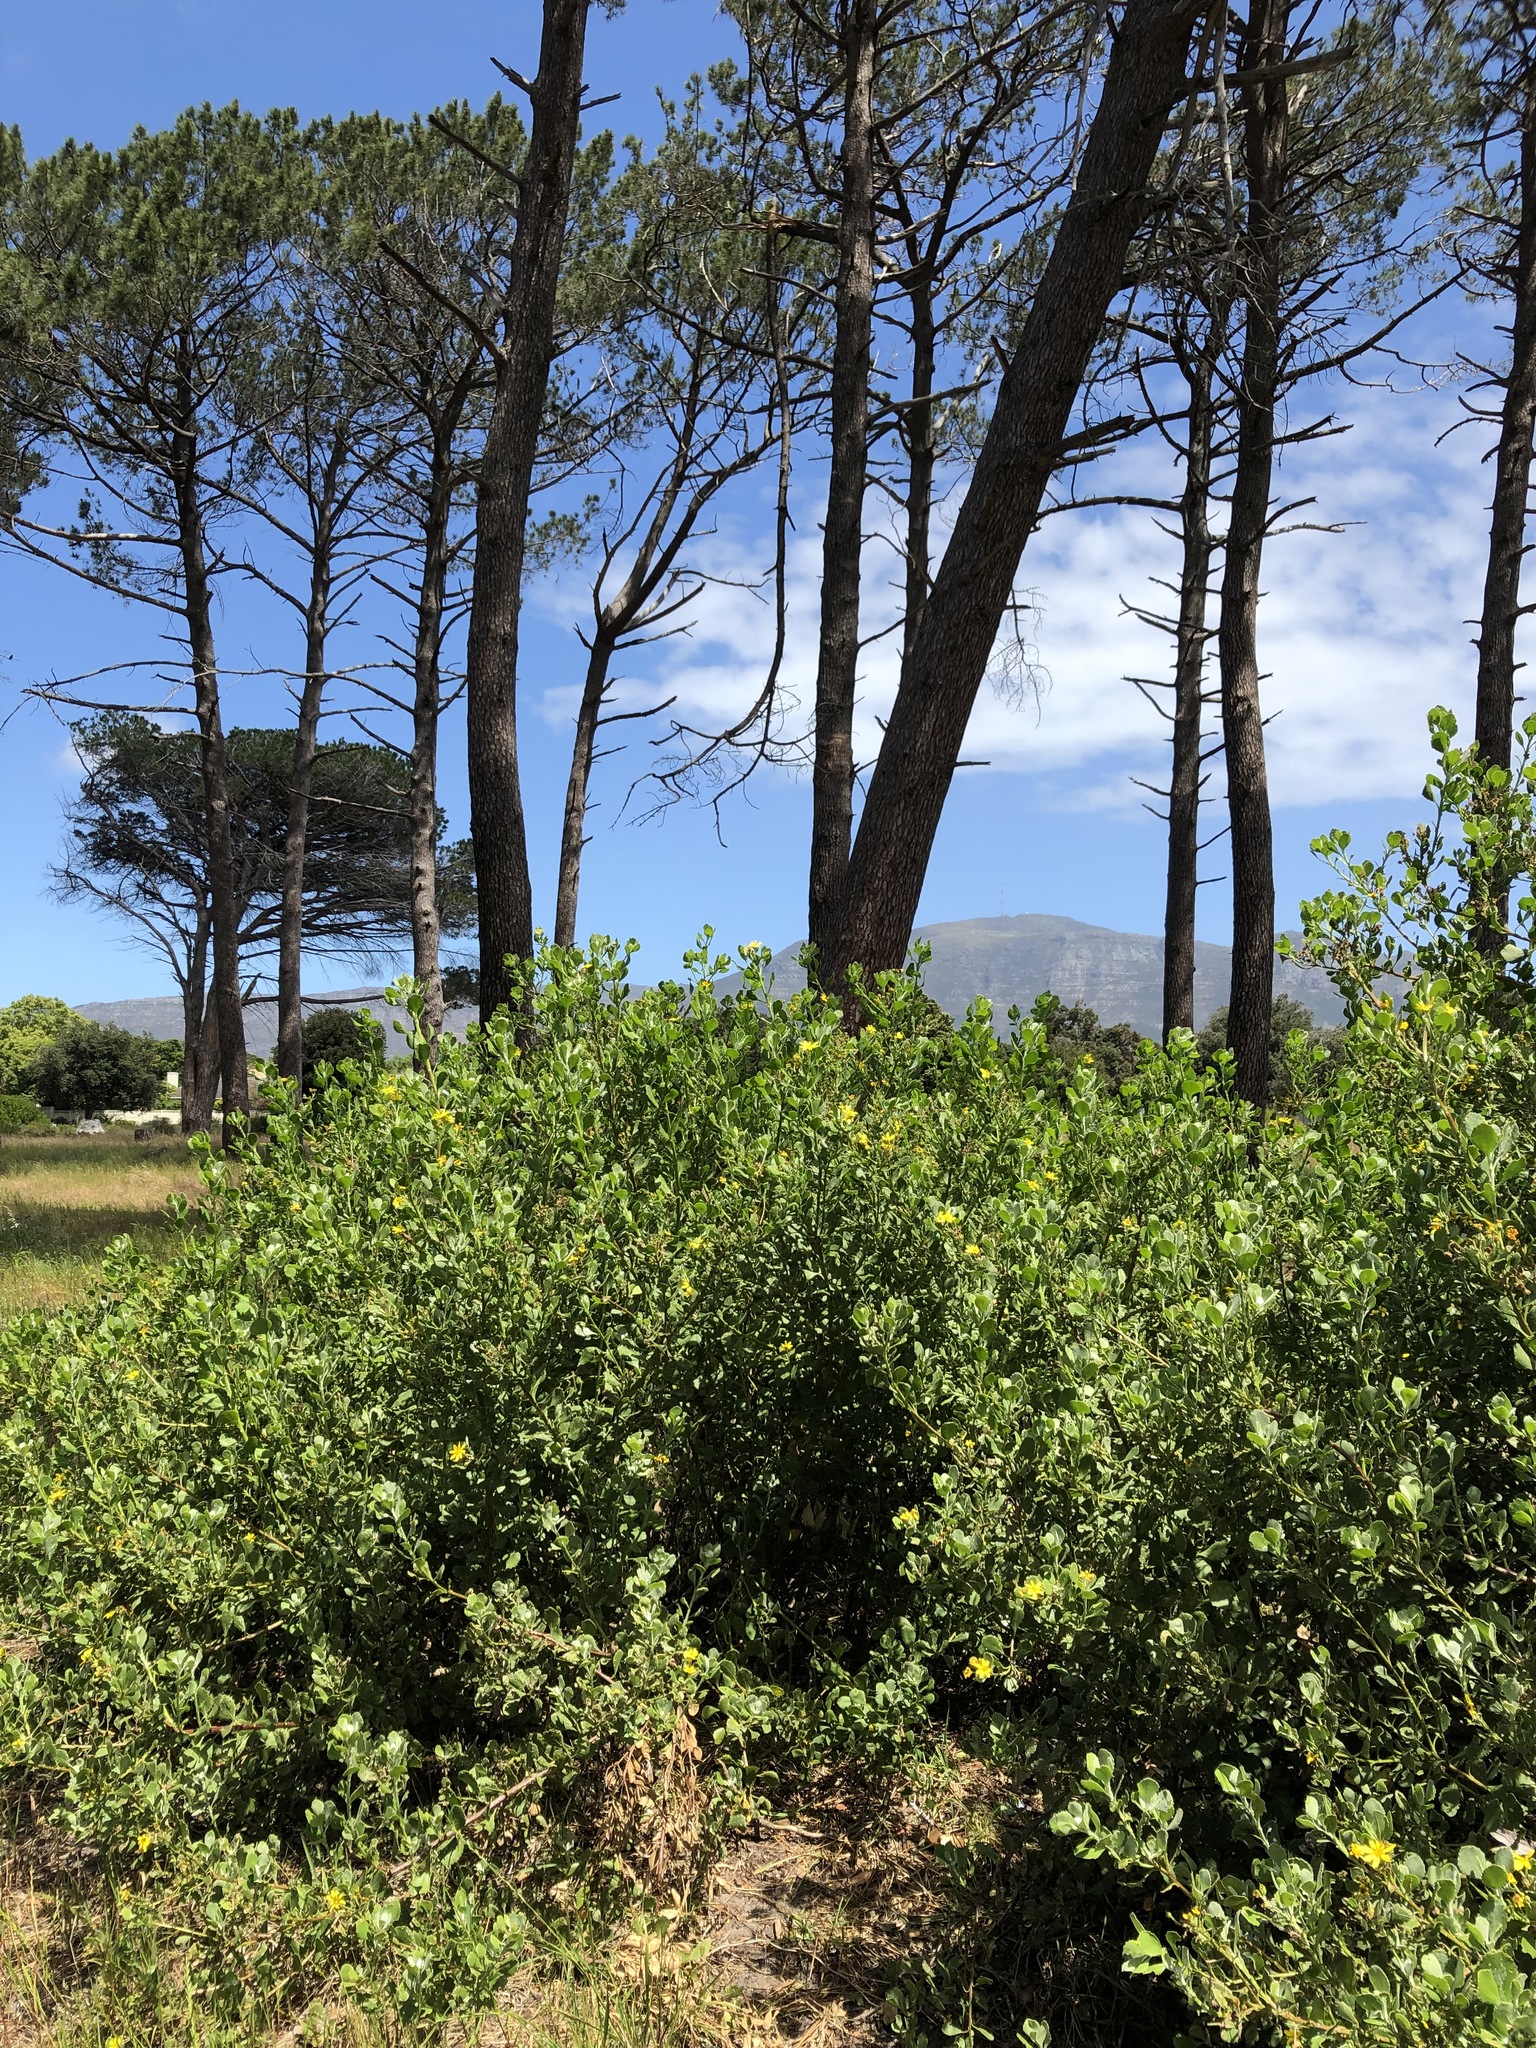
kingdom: Plantae
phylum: Tracheophyta
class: Magnoliopsida
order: Asterales
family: Asteraceae
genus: Osteospermum
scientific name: Osteospermum moniliferum
